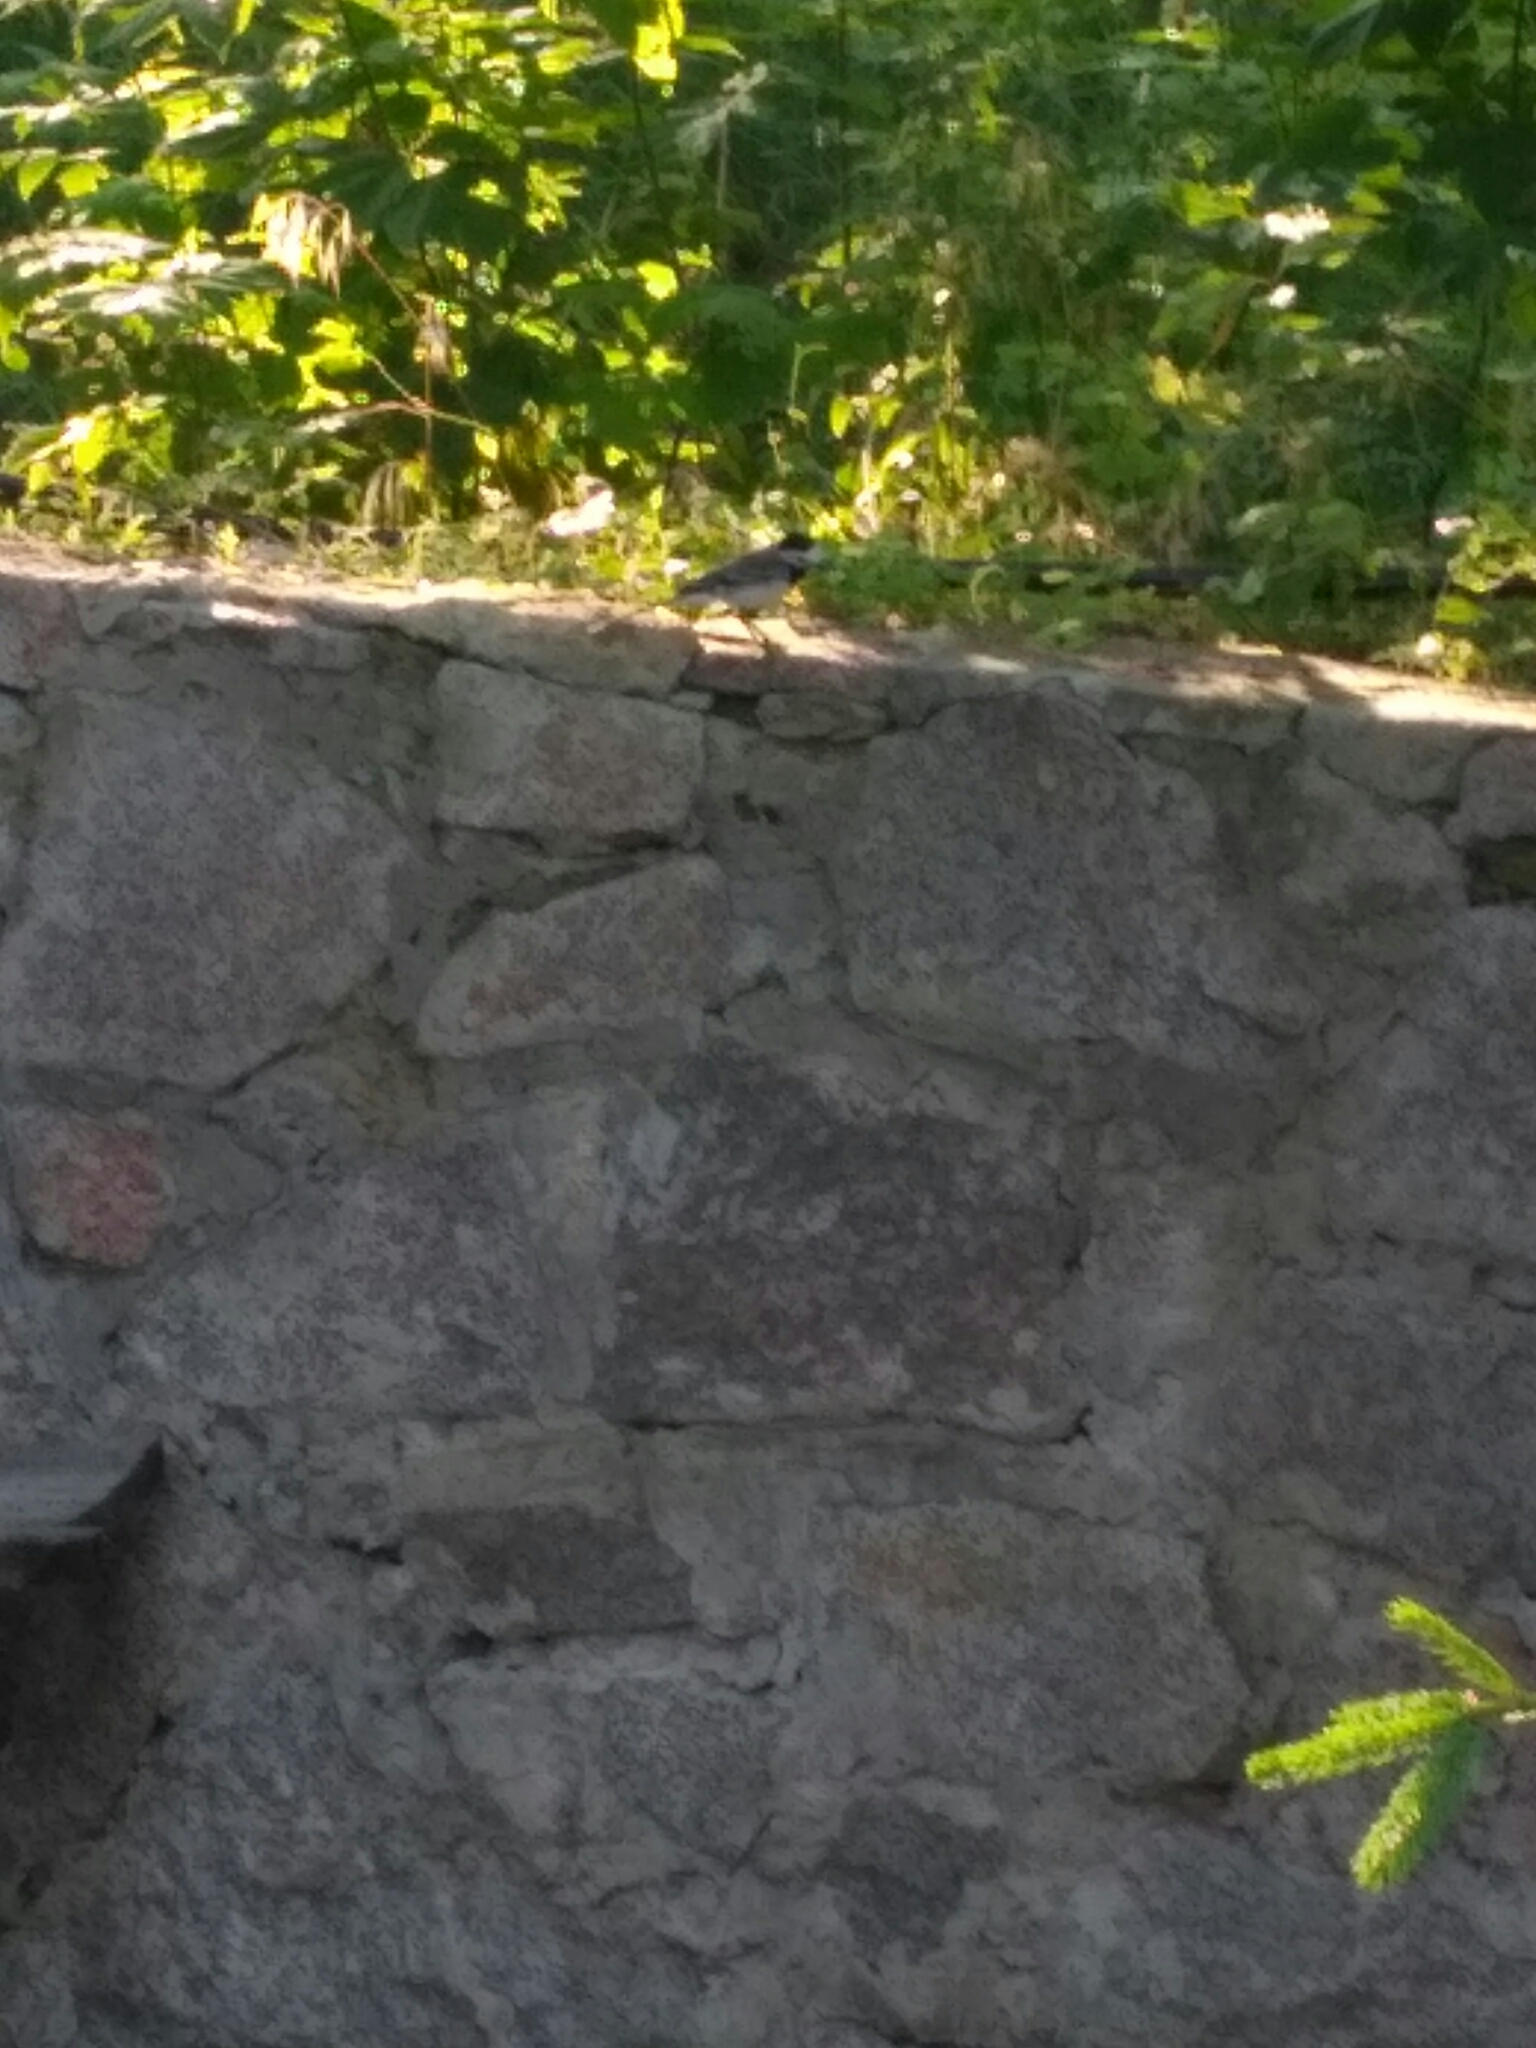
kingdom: Animalia
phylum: Chordata
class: Aves
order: Passeriformes
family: Motacillidae
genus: Motacilla
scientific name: Motacilla alba
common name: White wagtail
